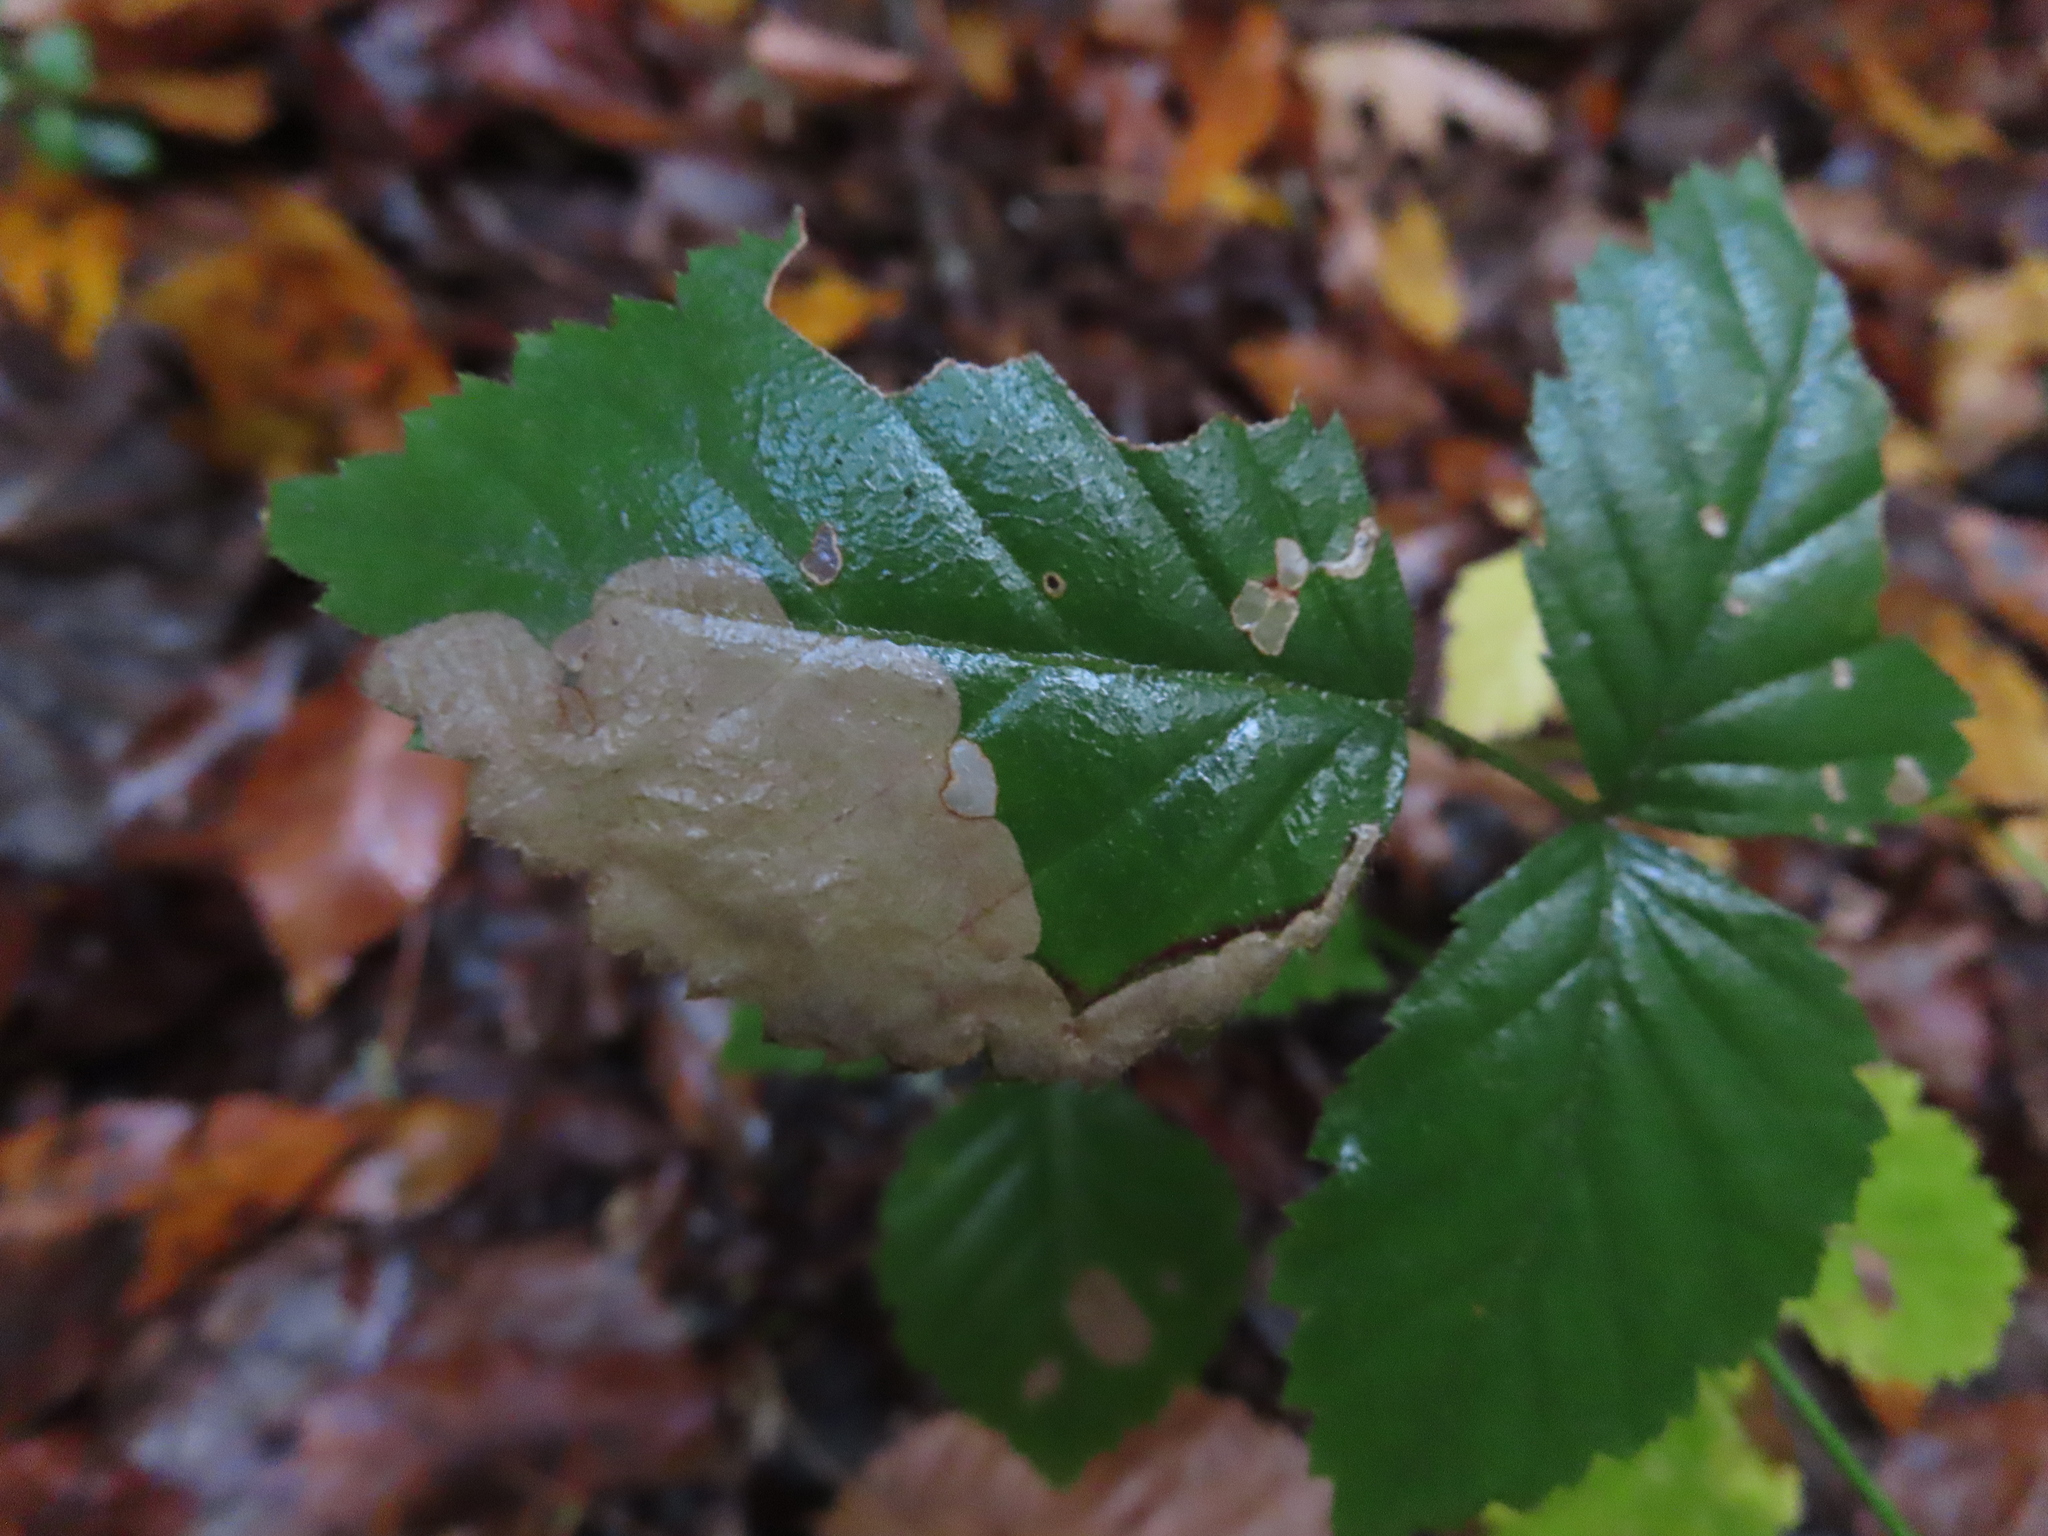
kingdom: Animalia
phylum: Arthropoda
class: Insecta
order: Hymenoptera
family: Tenthredinidae
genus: Metallus
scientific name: Metallus rohweri
